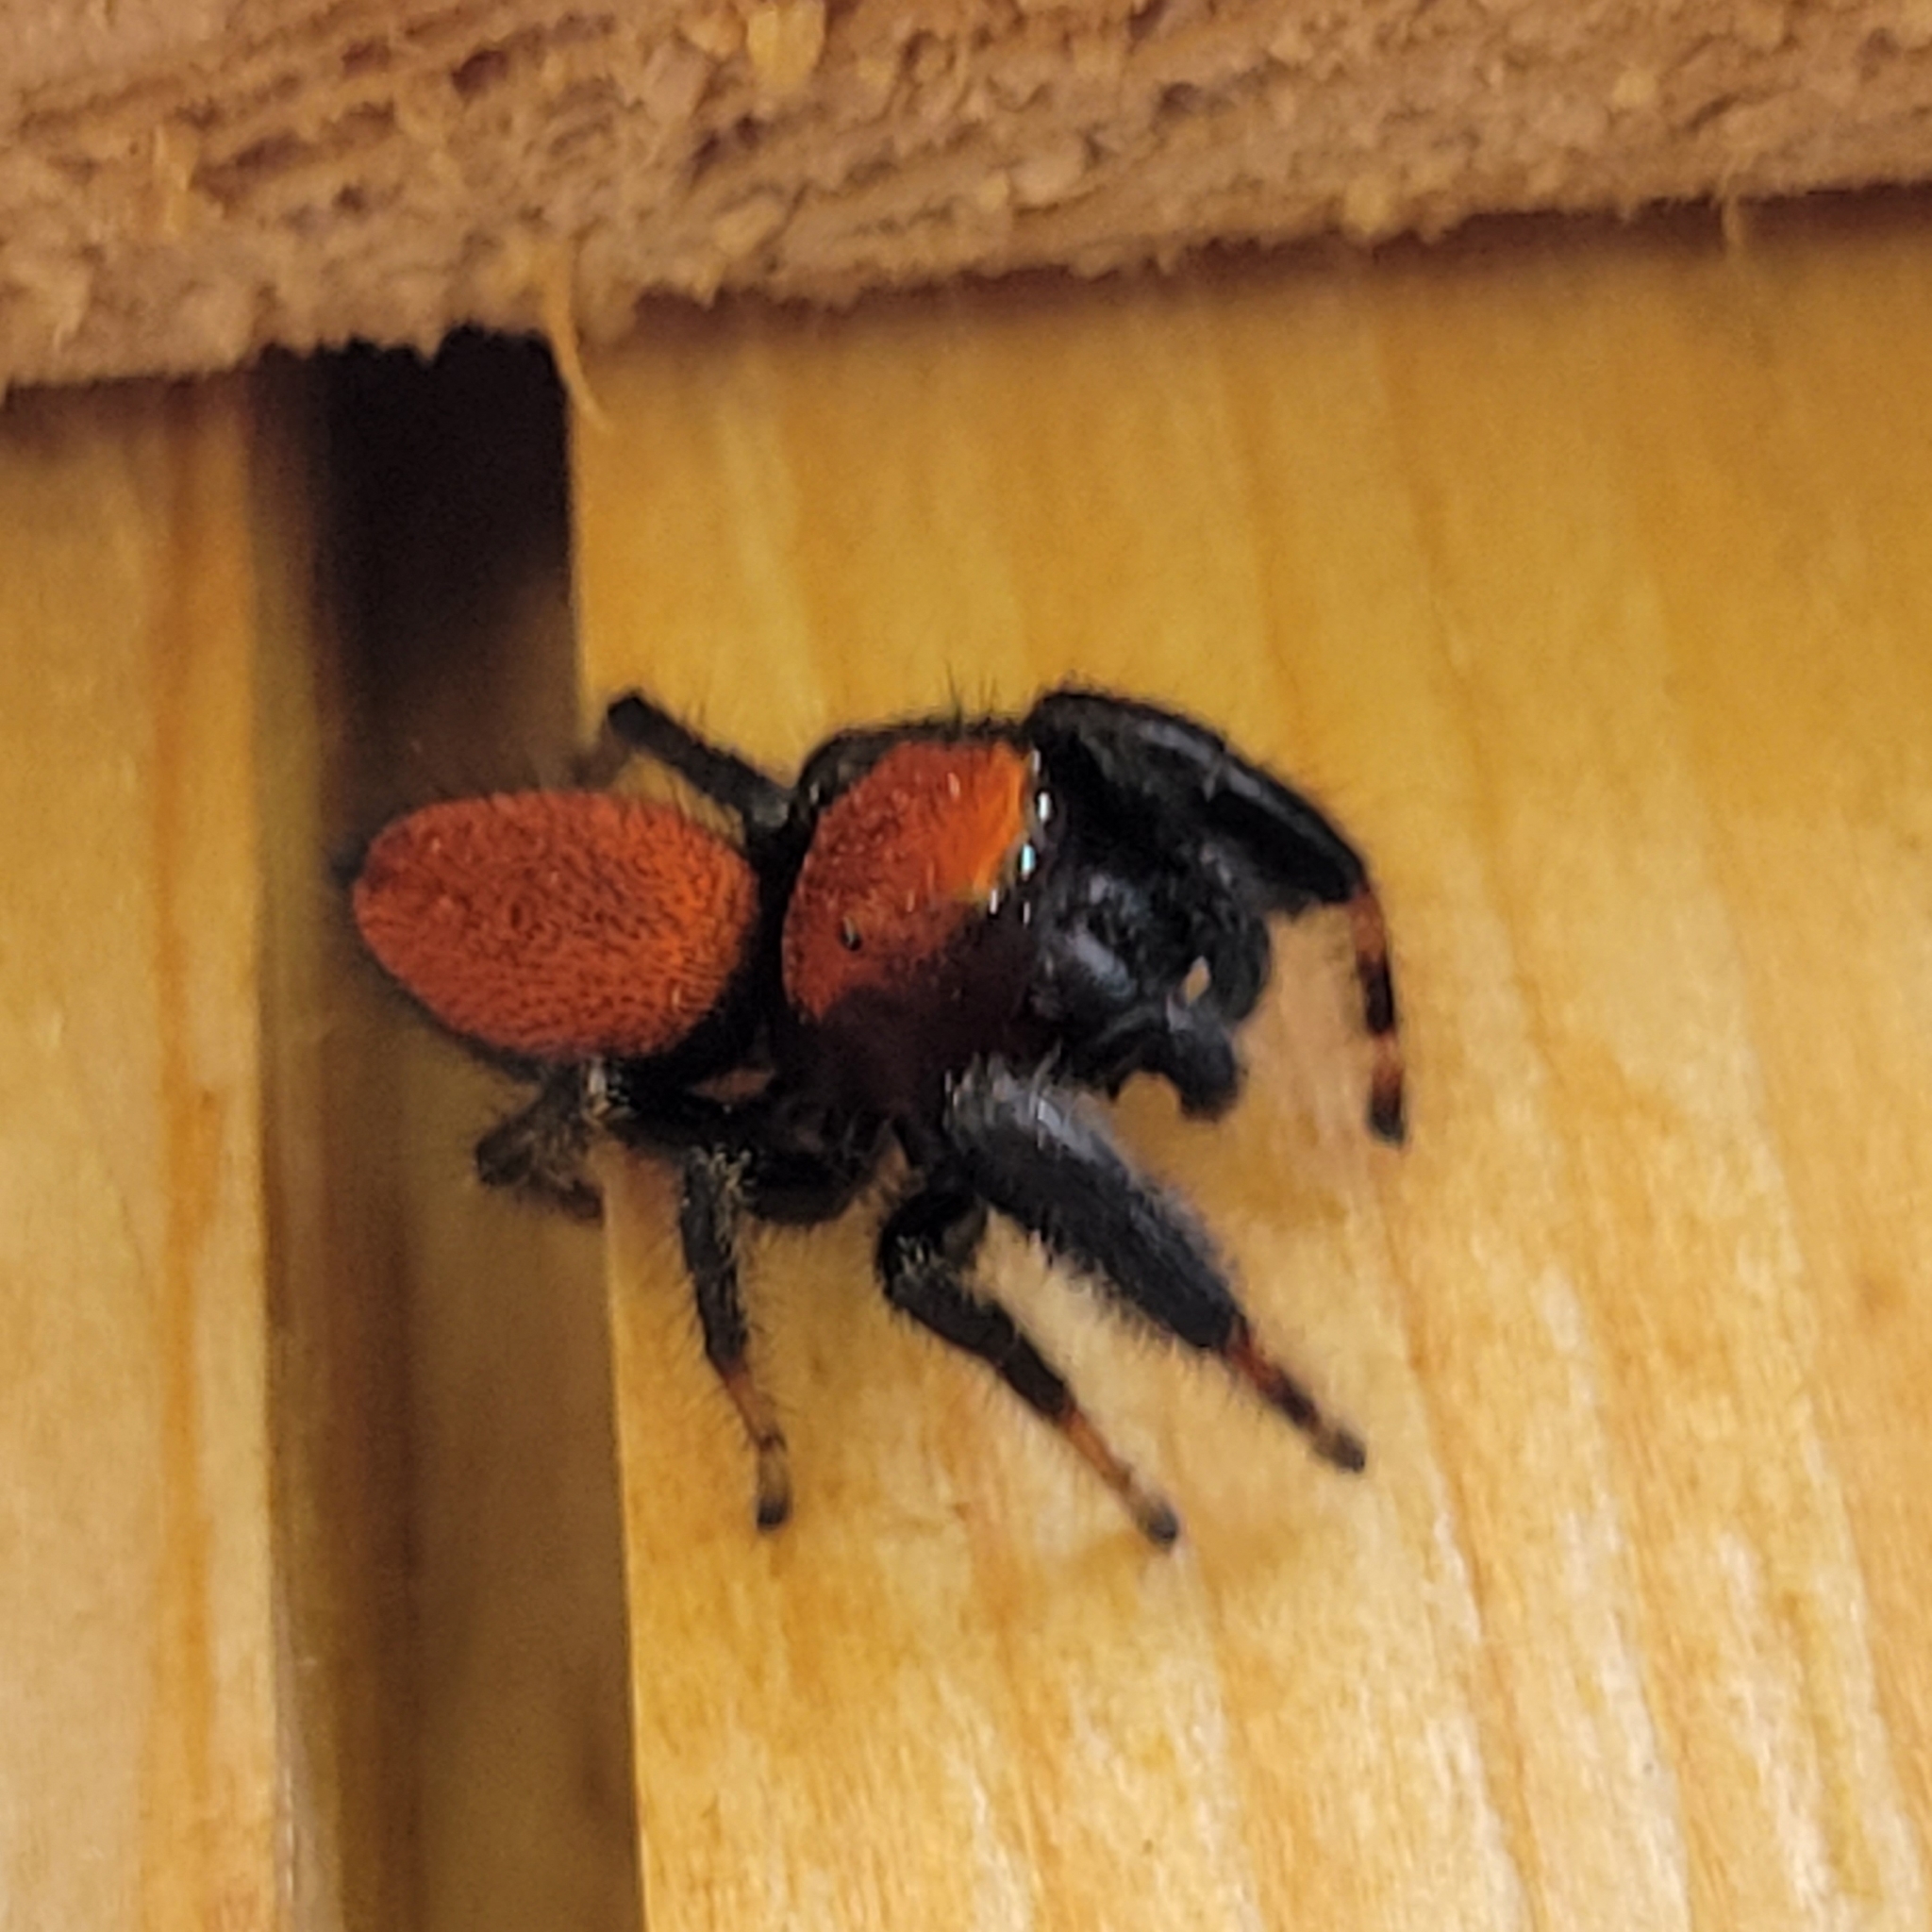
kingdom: Animalia
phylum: Arthropoda
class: Arachnida
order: Araneae
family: Salticidae
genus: Phidippus
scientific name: Phidippus cardinalis
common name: Cardinal jumper
